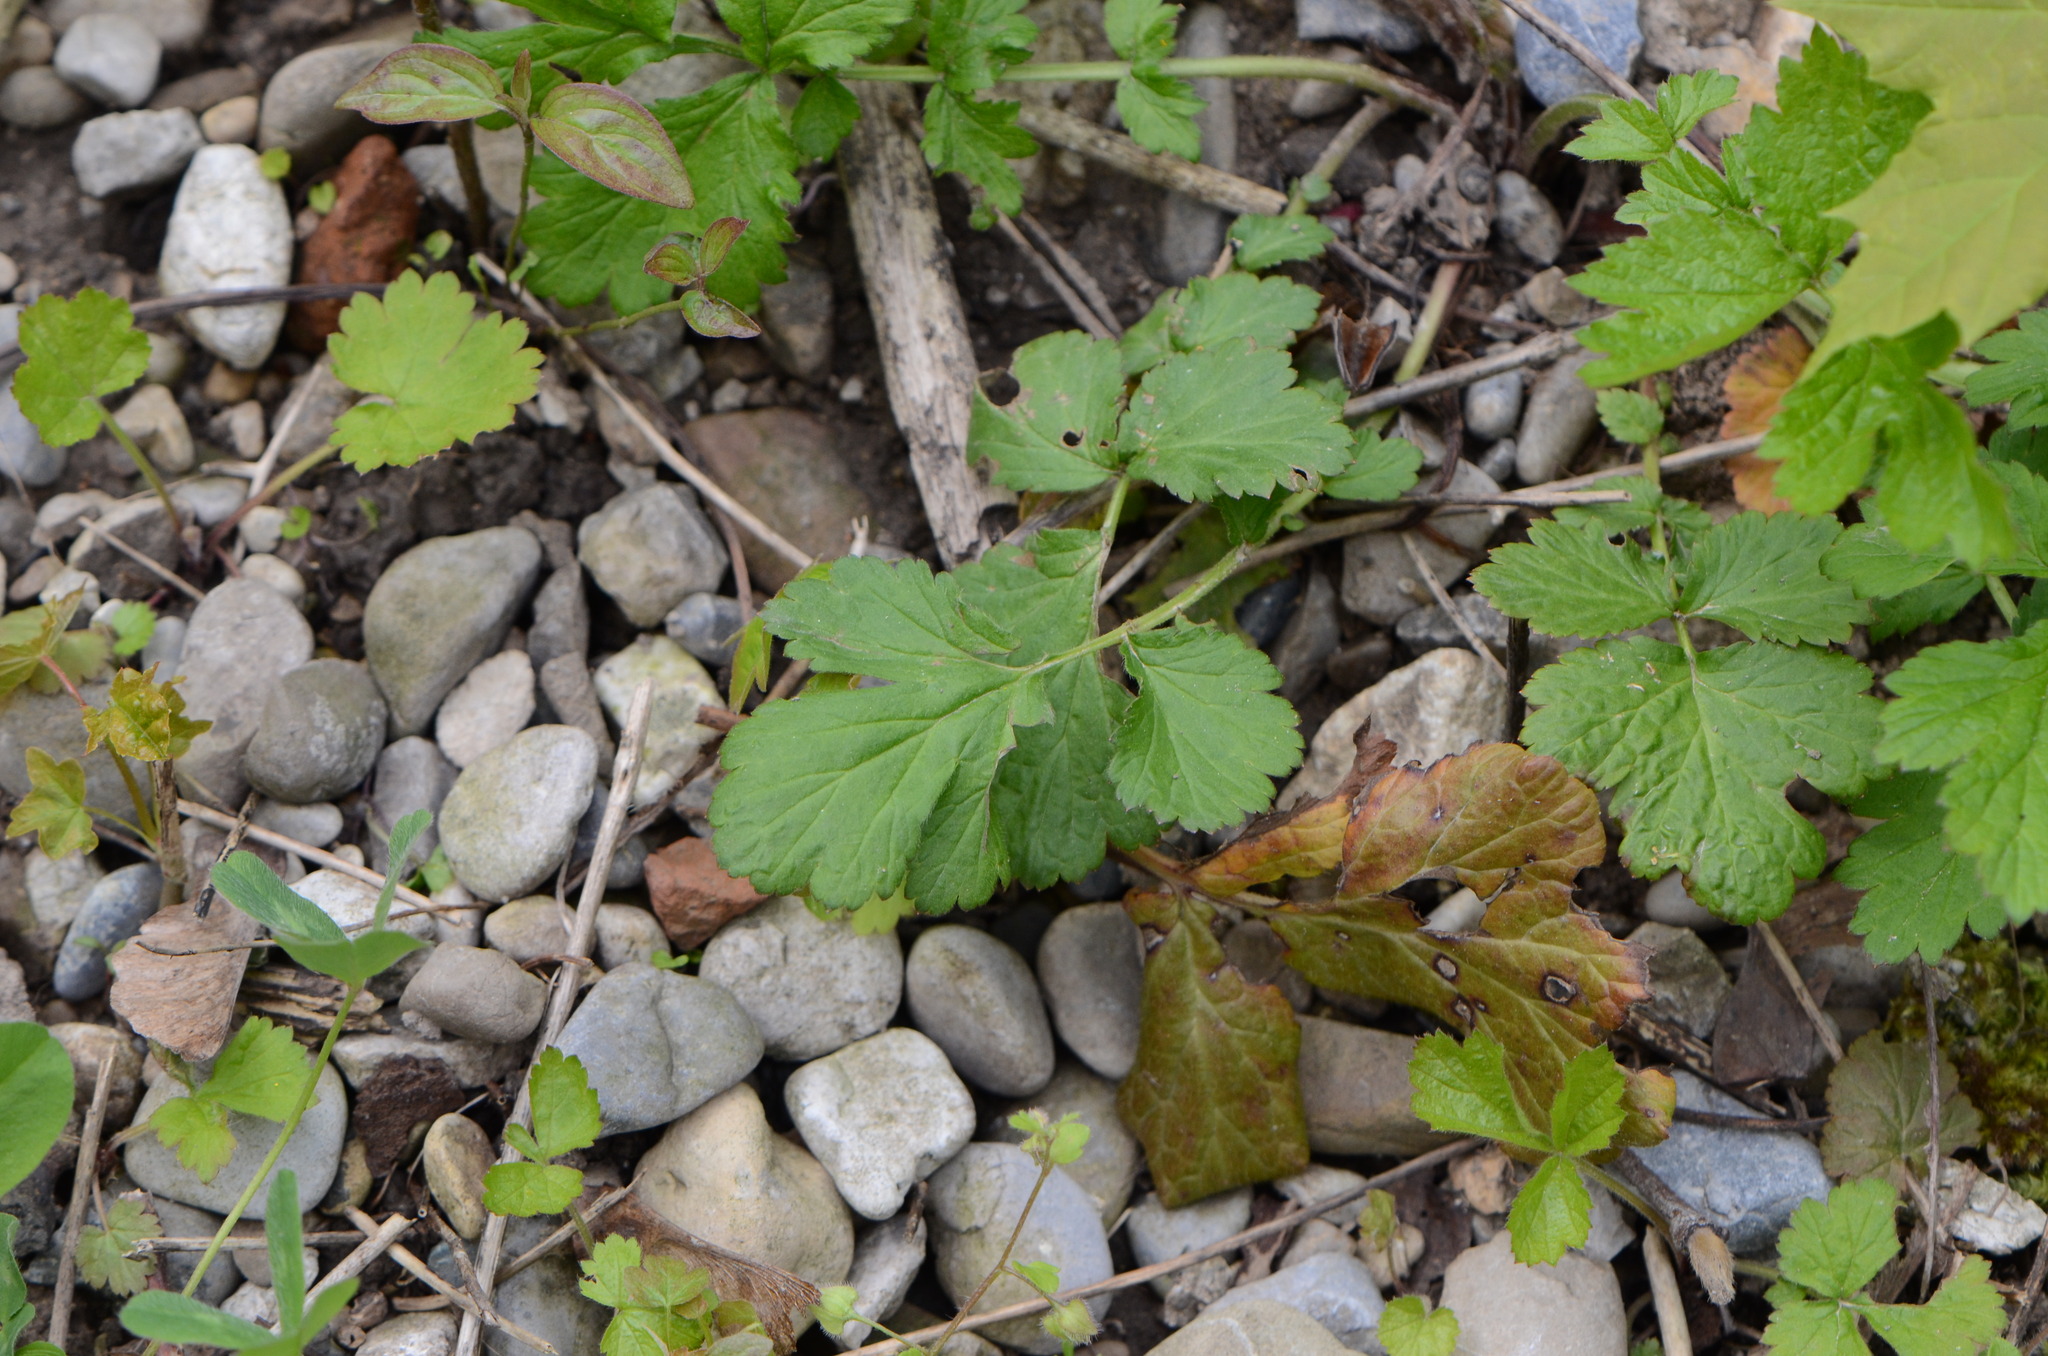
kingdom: Plantae
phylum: Tracheophyta
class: Magnoliopsida
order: Rosales
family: Rosaceae
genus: Geum
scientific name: Geum urbanum
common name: Wood avens
